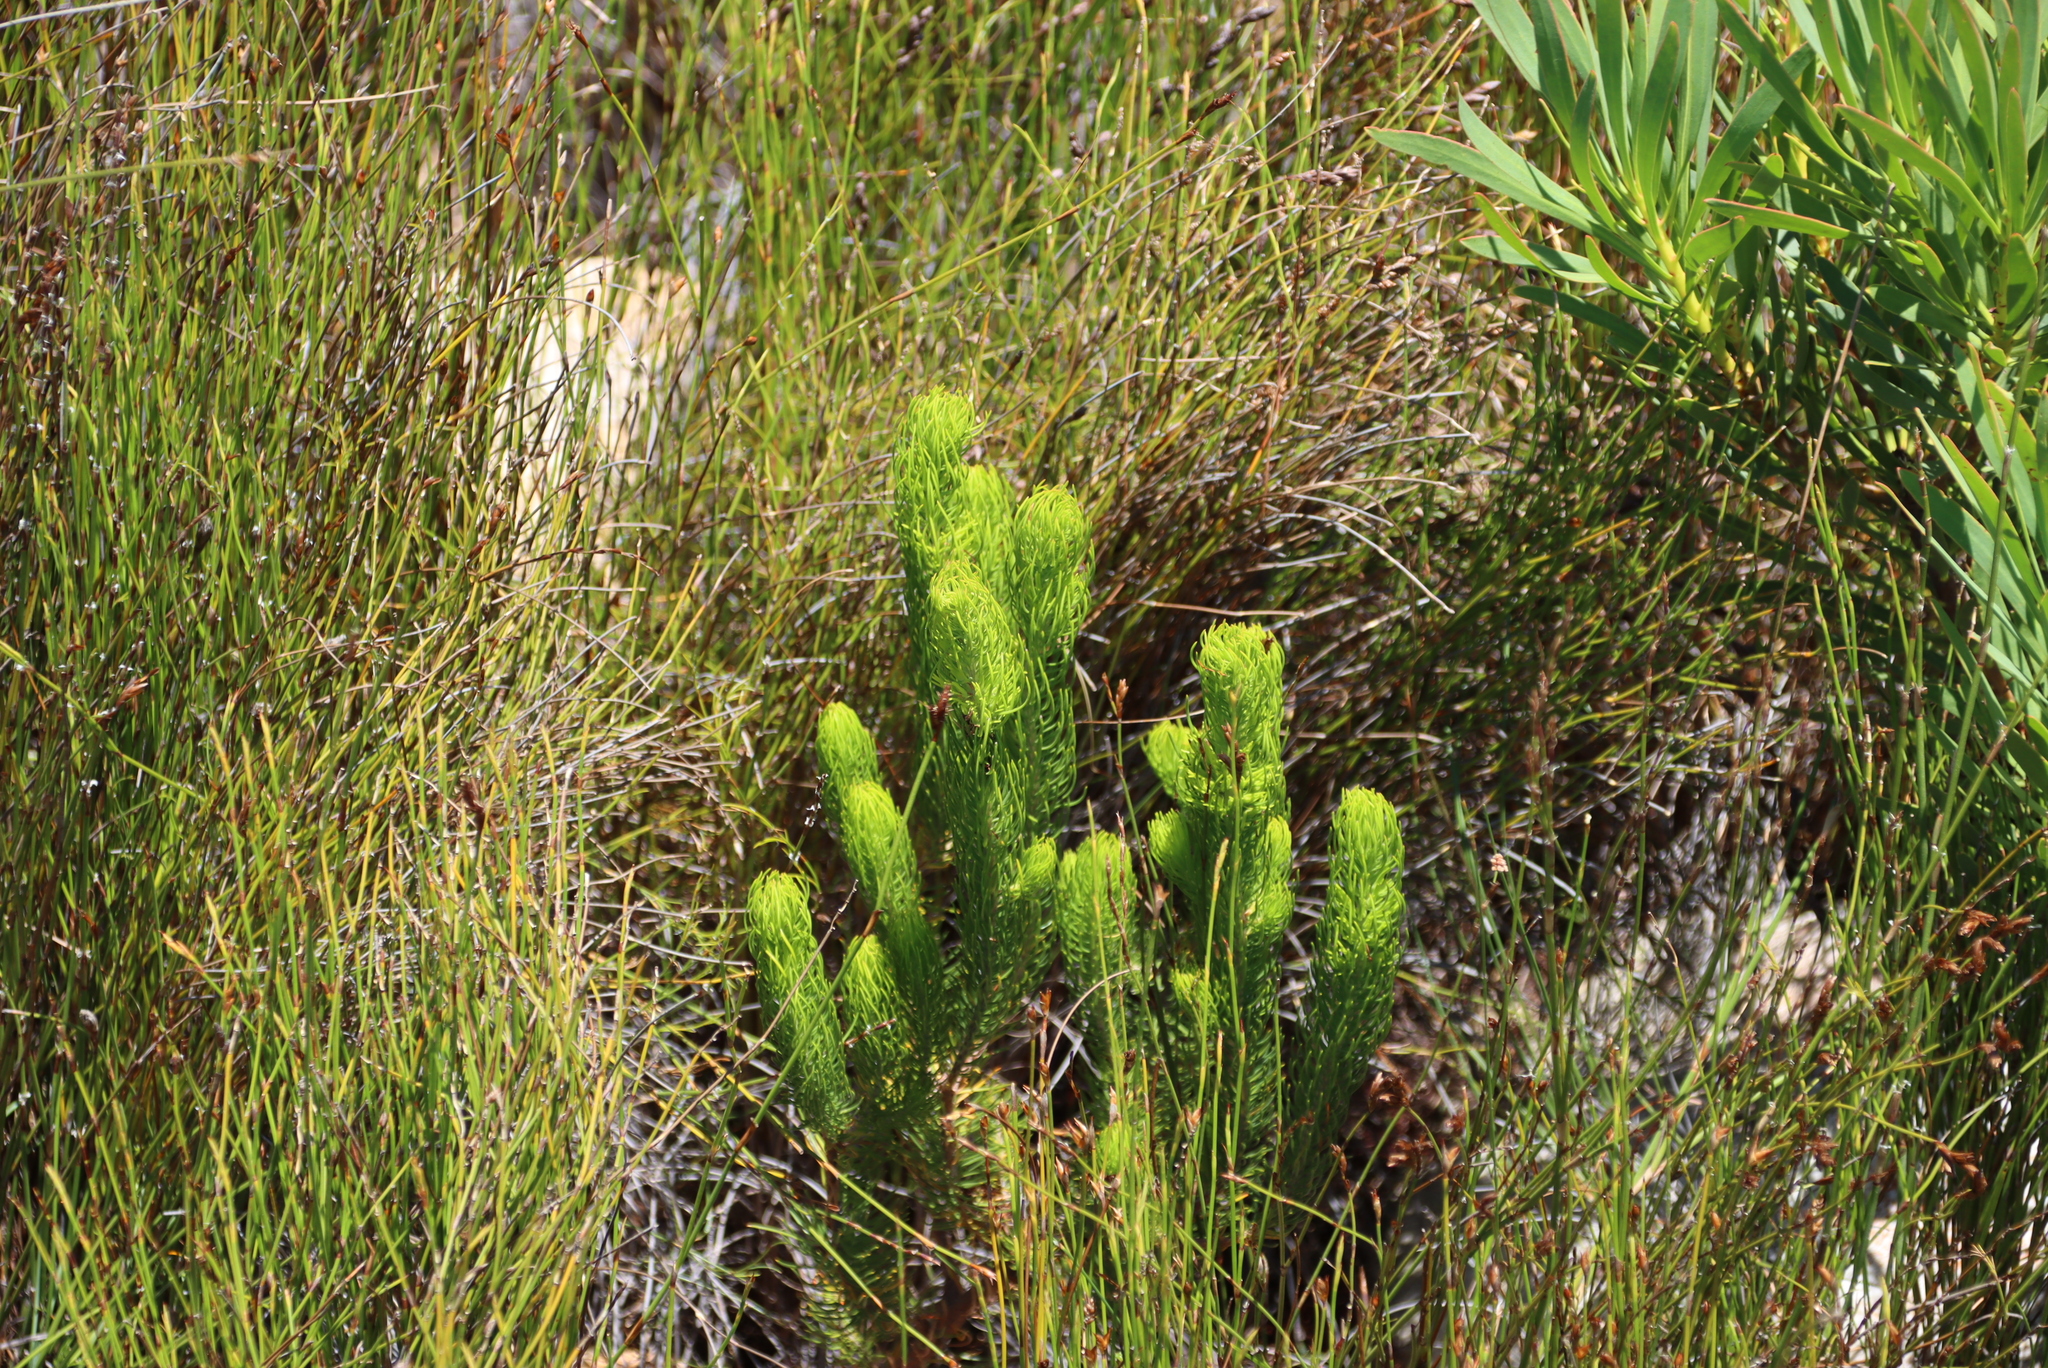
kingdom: Plantae
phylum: Tracheophyta
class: Magnoliopsida
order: Ericales
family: Ericaceae
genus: Erica
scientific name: Erica viscaria
